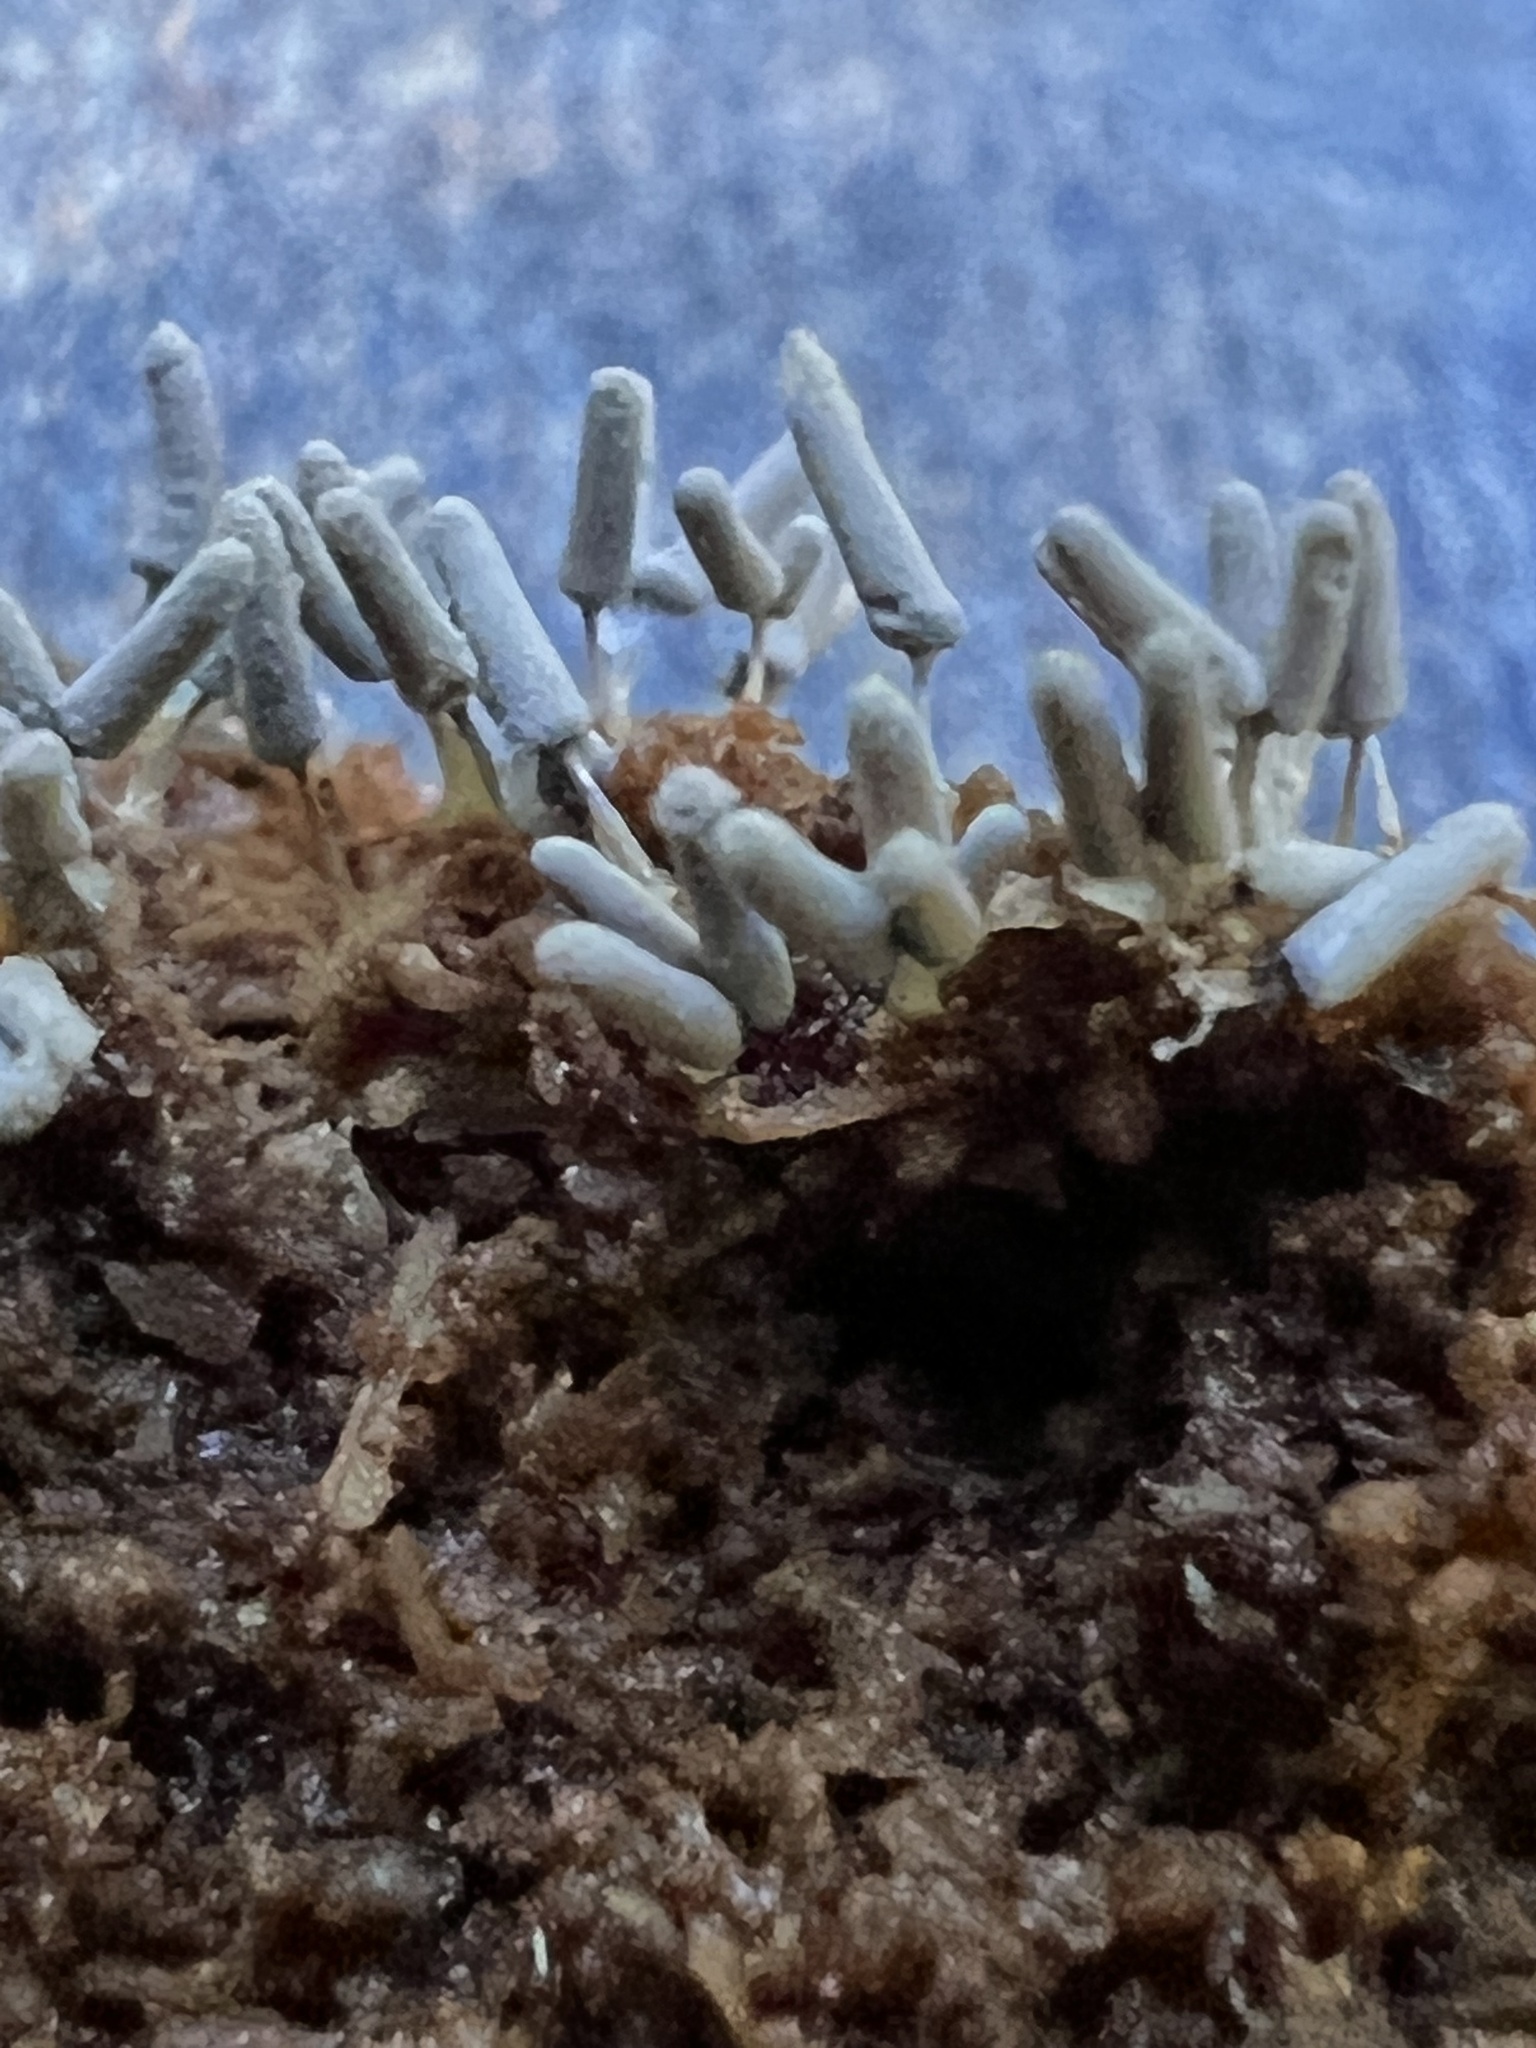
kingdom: Protozoa
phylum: Mycetozoa
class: Myxomycetes
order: Trichiales
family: Arcyriaceae
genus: Arcyria
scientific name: Arcyria cinerea
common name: White carnival candy slime mold
